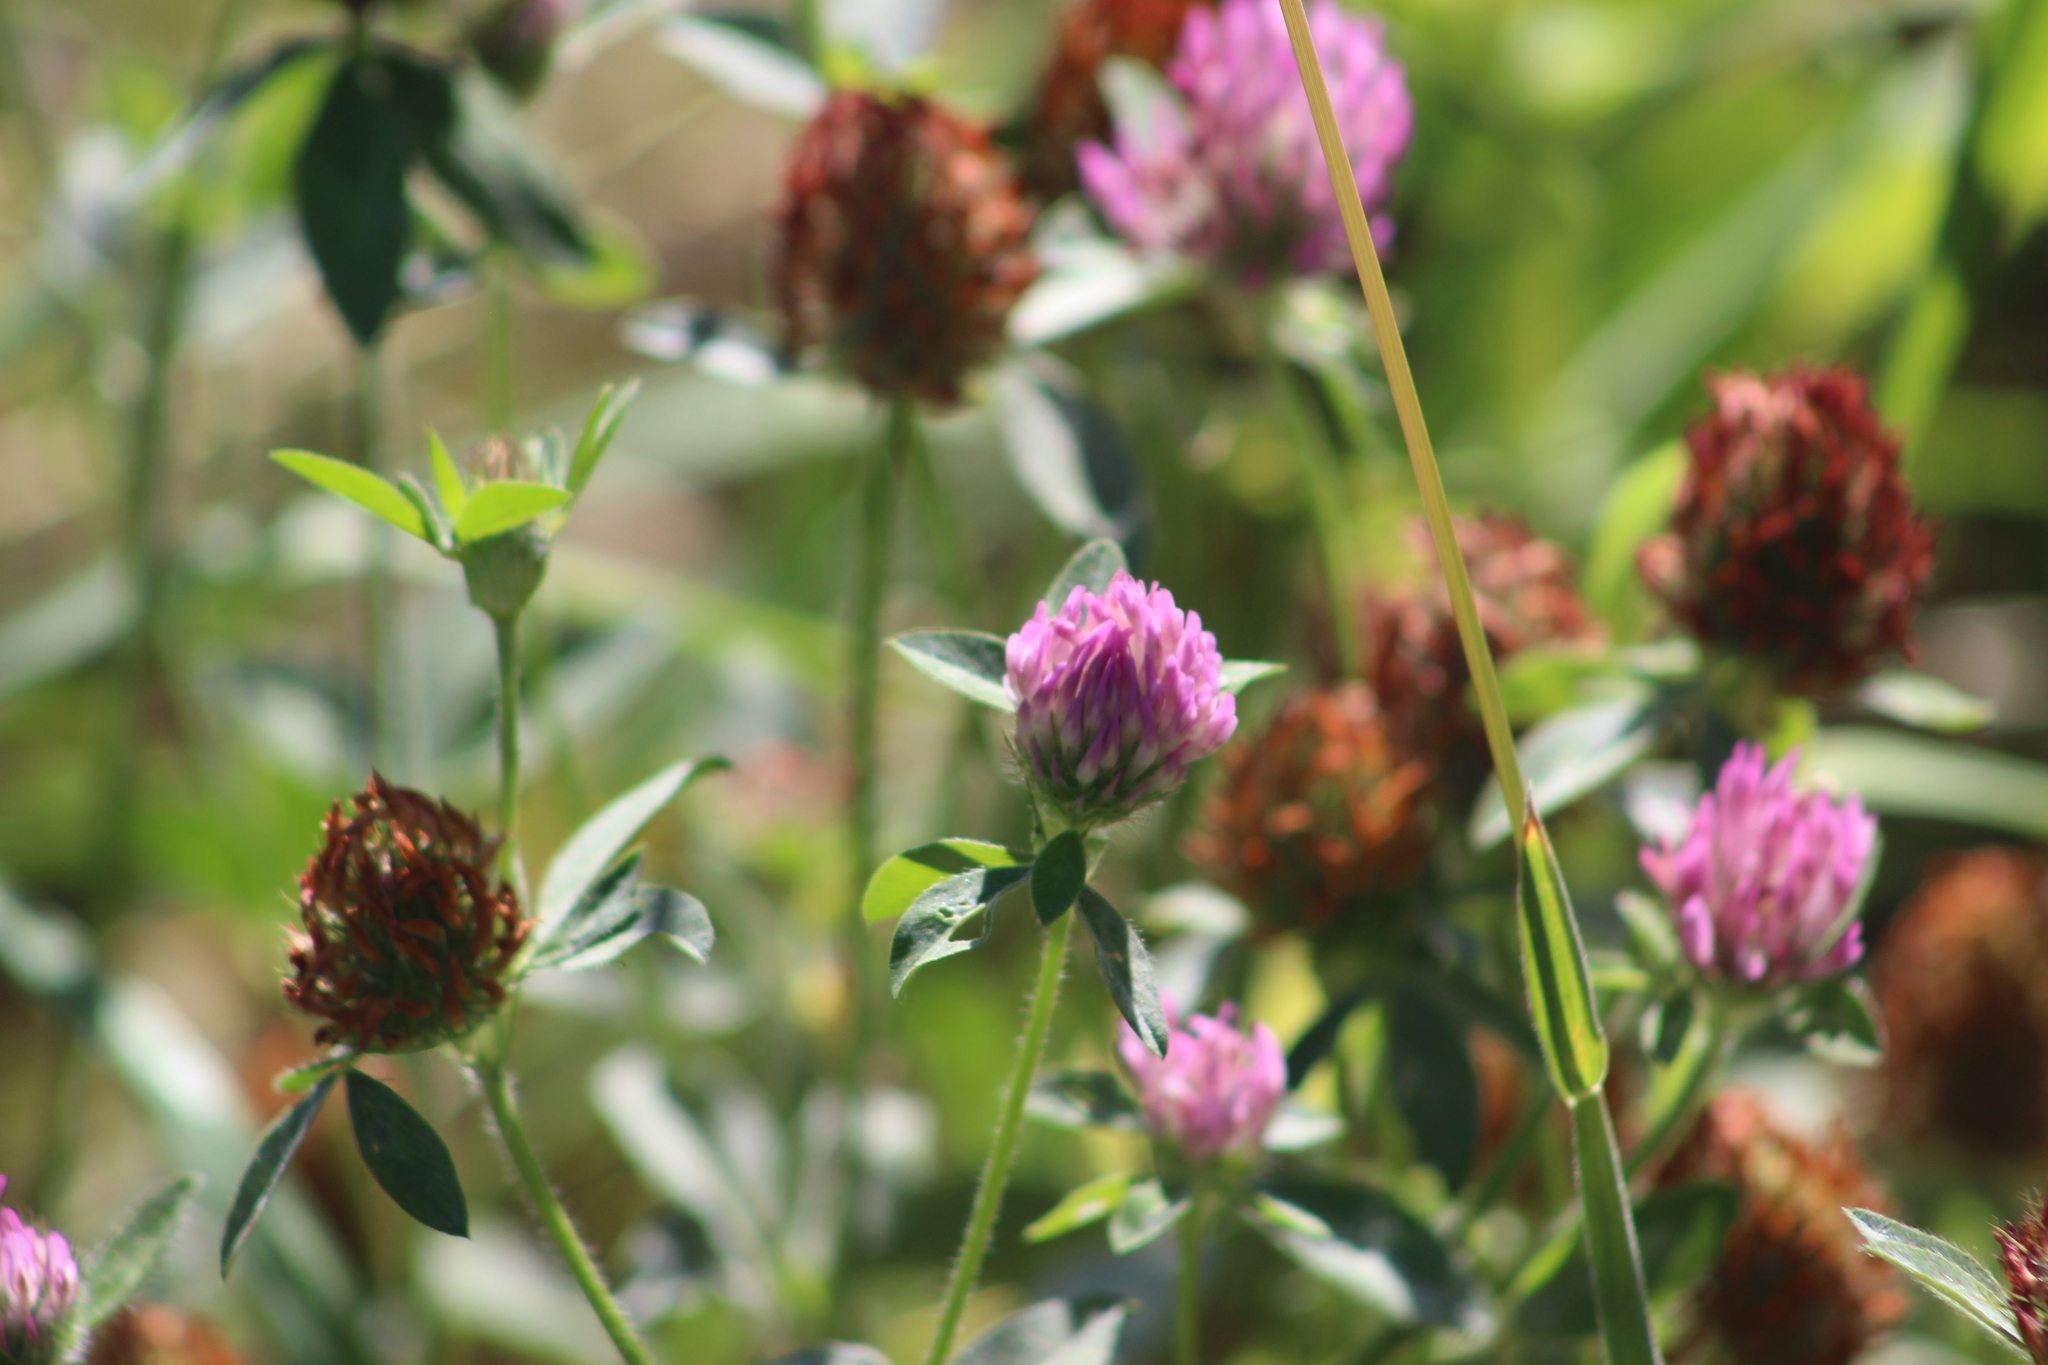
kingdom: Plantae
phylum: Tracheophyta
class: Magnoliopsida
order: Fabales
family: Fabaceae
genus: Trifolium
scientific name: Trifolium pratense
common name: Red clover
